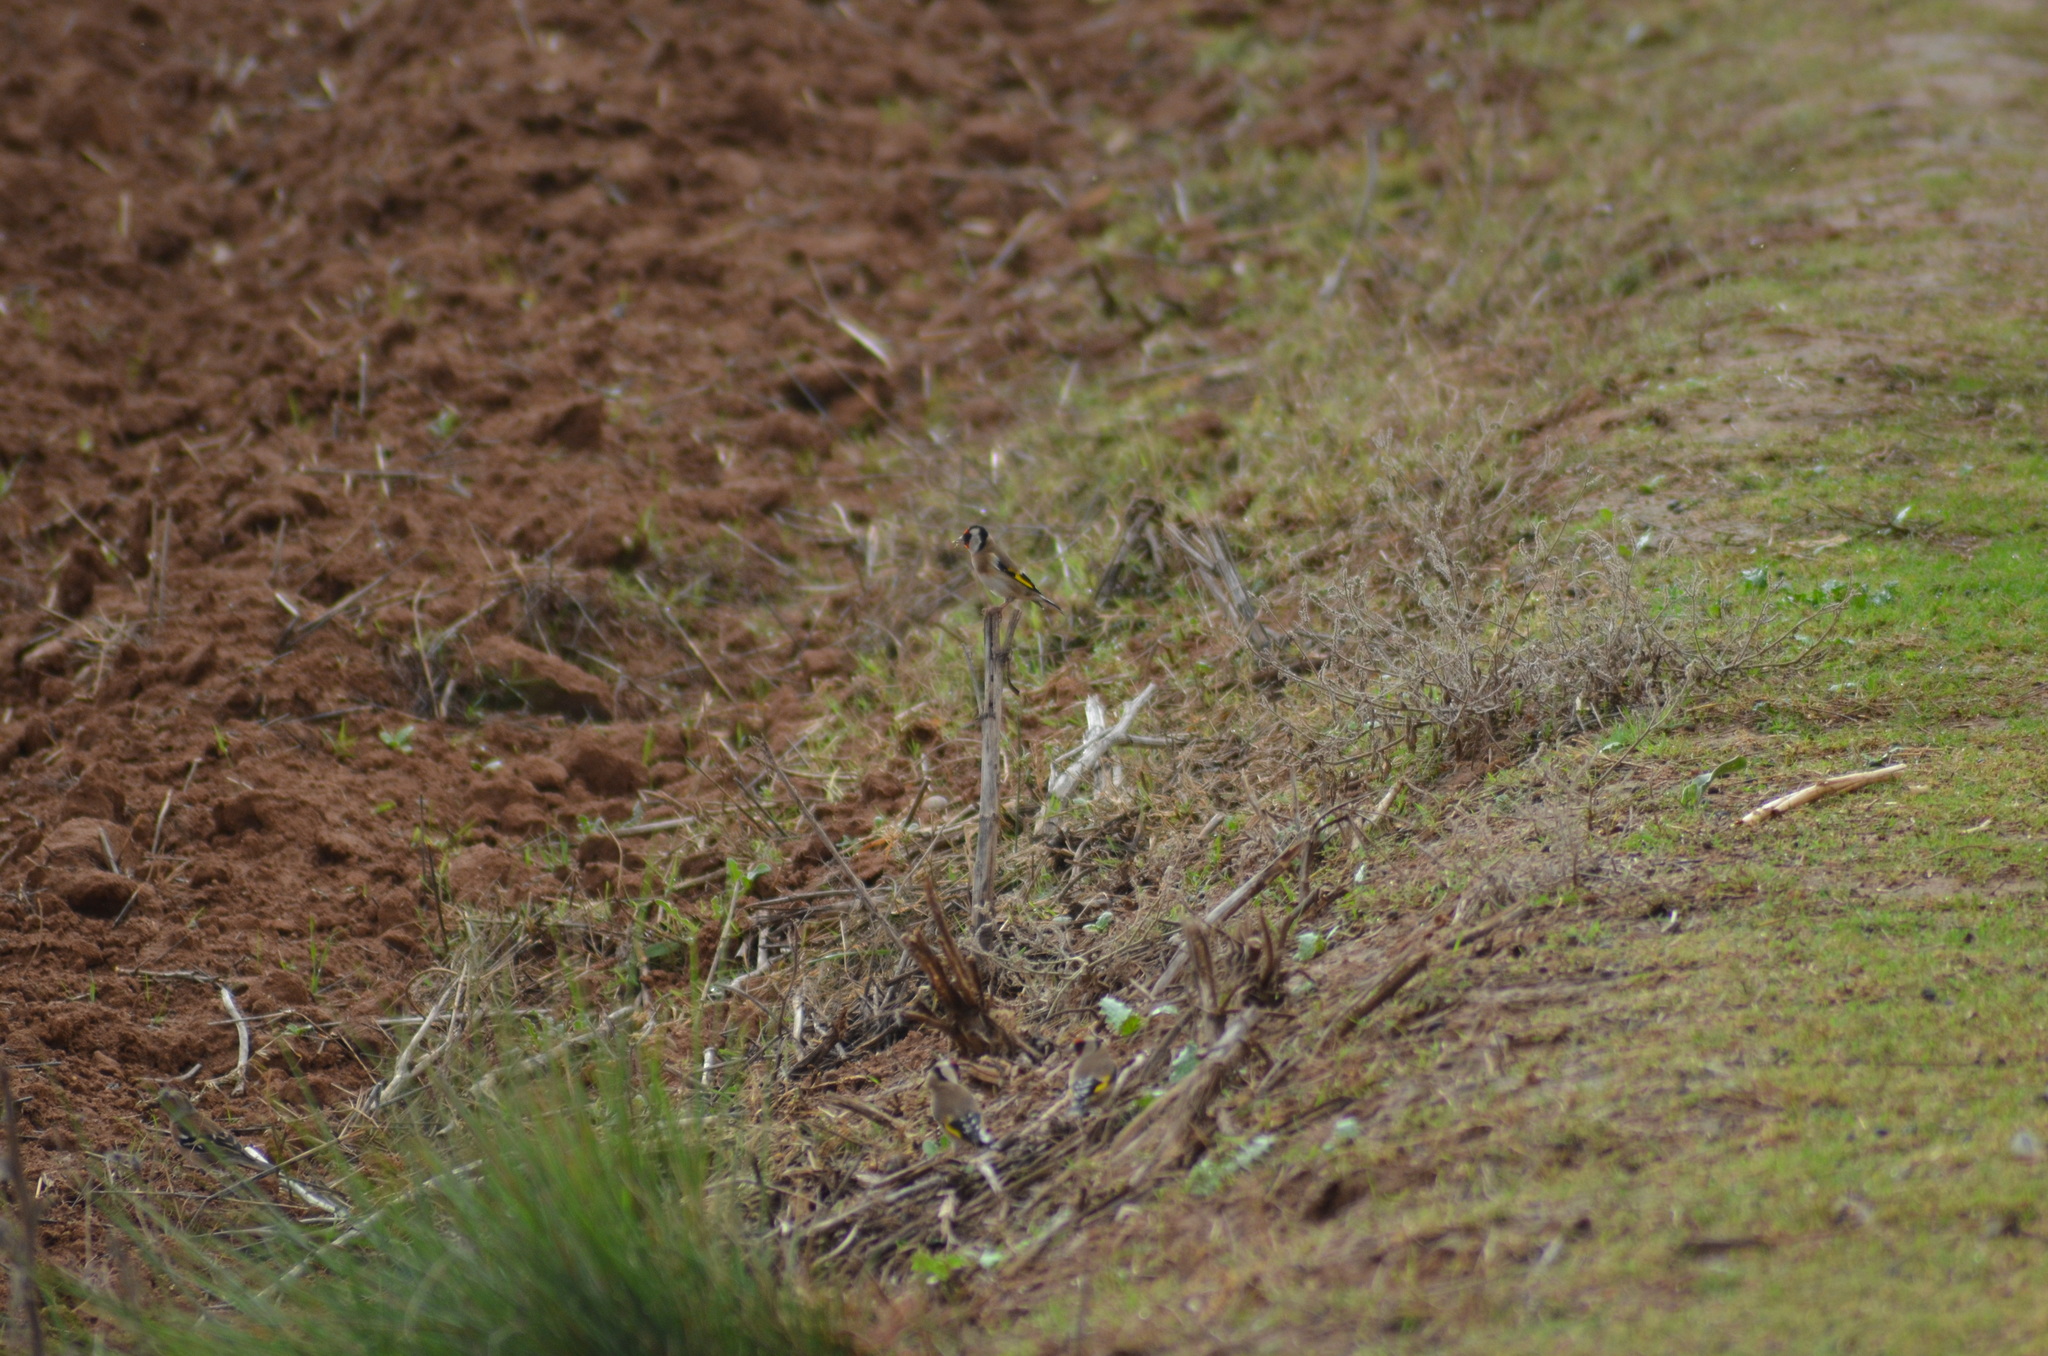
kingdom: Animalia
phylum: Chordata
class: Aves
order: Passeriformes
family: Fringillidae
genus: Carduelis
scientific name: Carduelis carduelis
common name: European goldfinch
